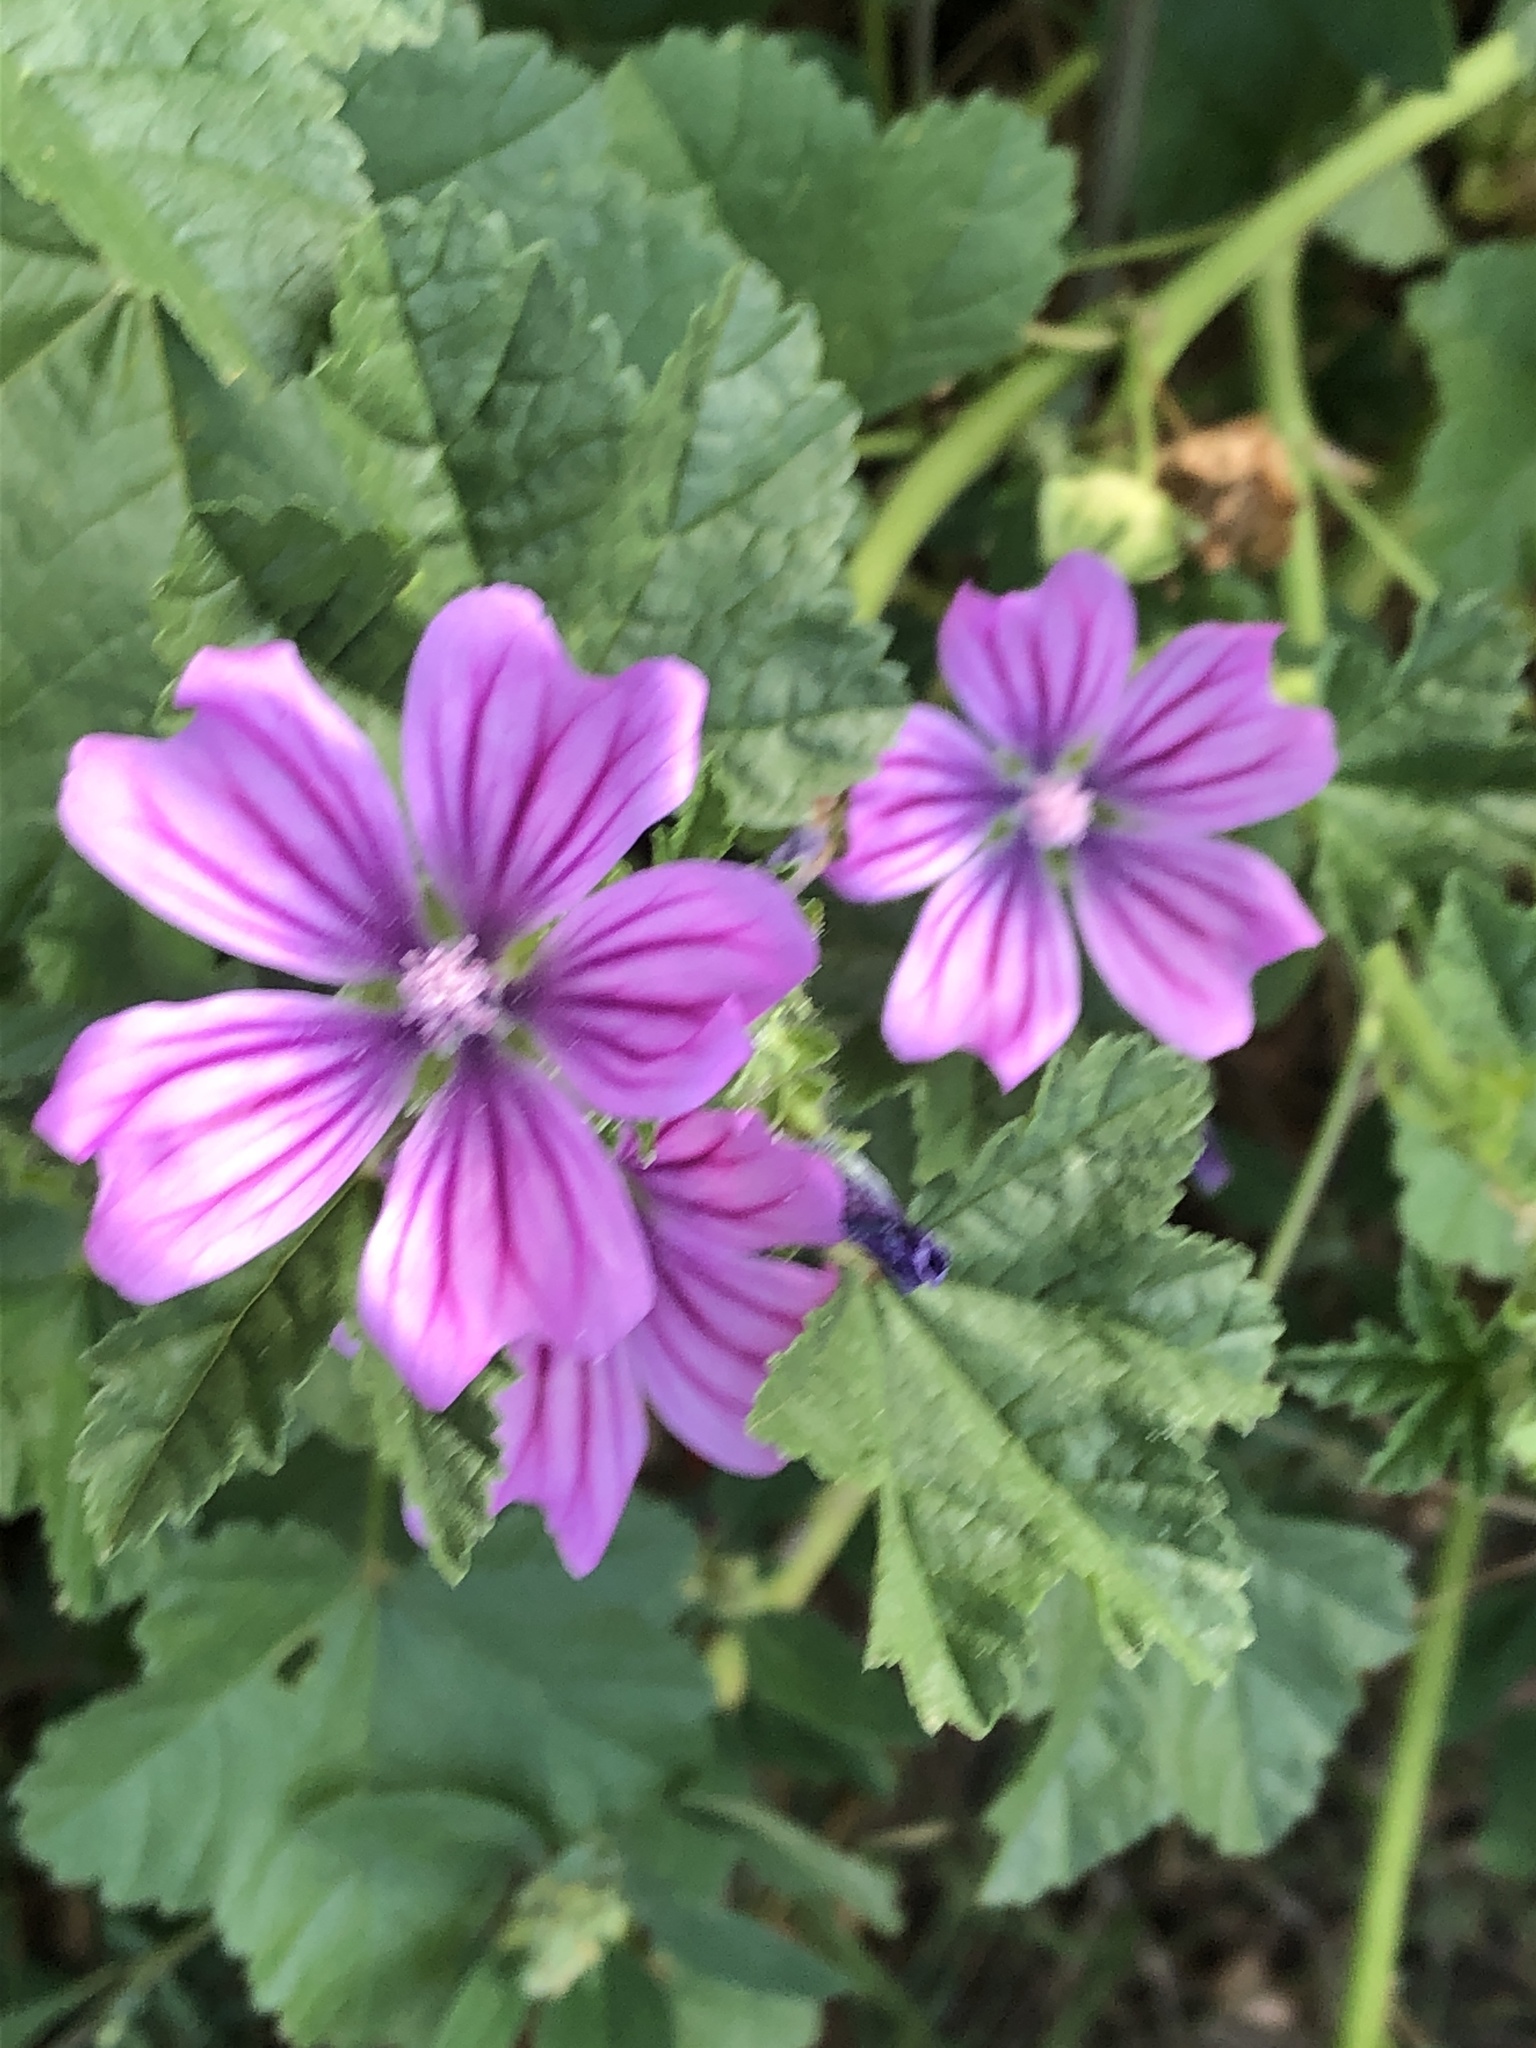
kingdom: Plantae
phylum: Tracheophyta
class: Magnoliopsida
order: Malvales
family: Malvaceae
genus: Malva
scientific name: Malva sylvestris
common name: Common mallow
